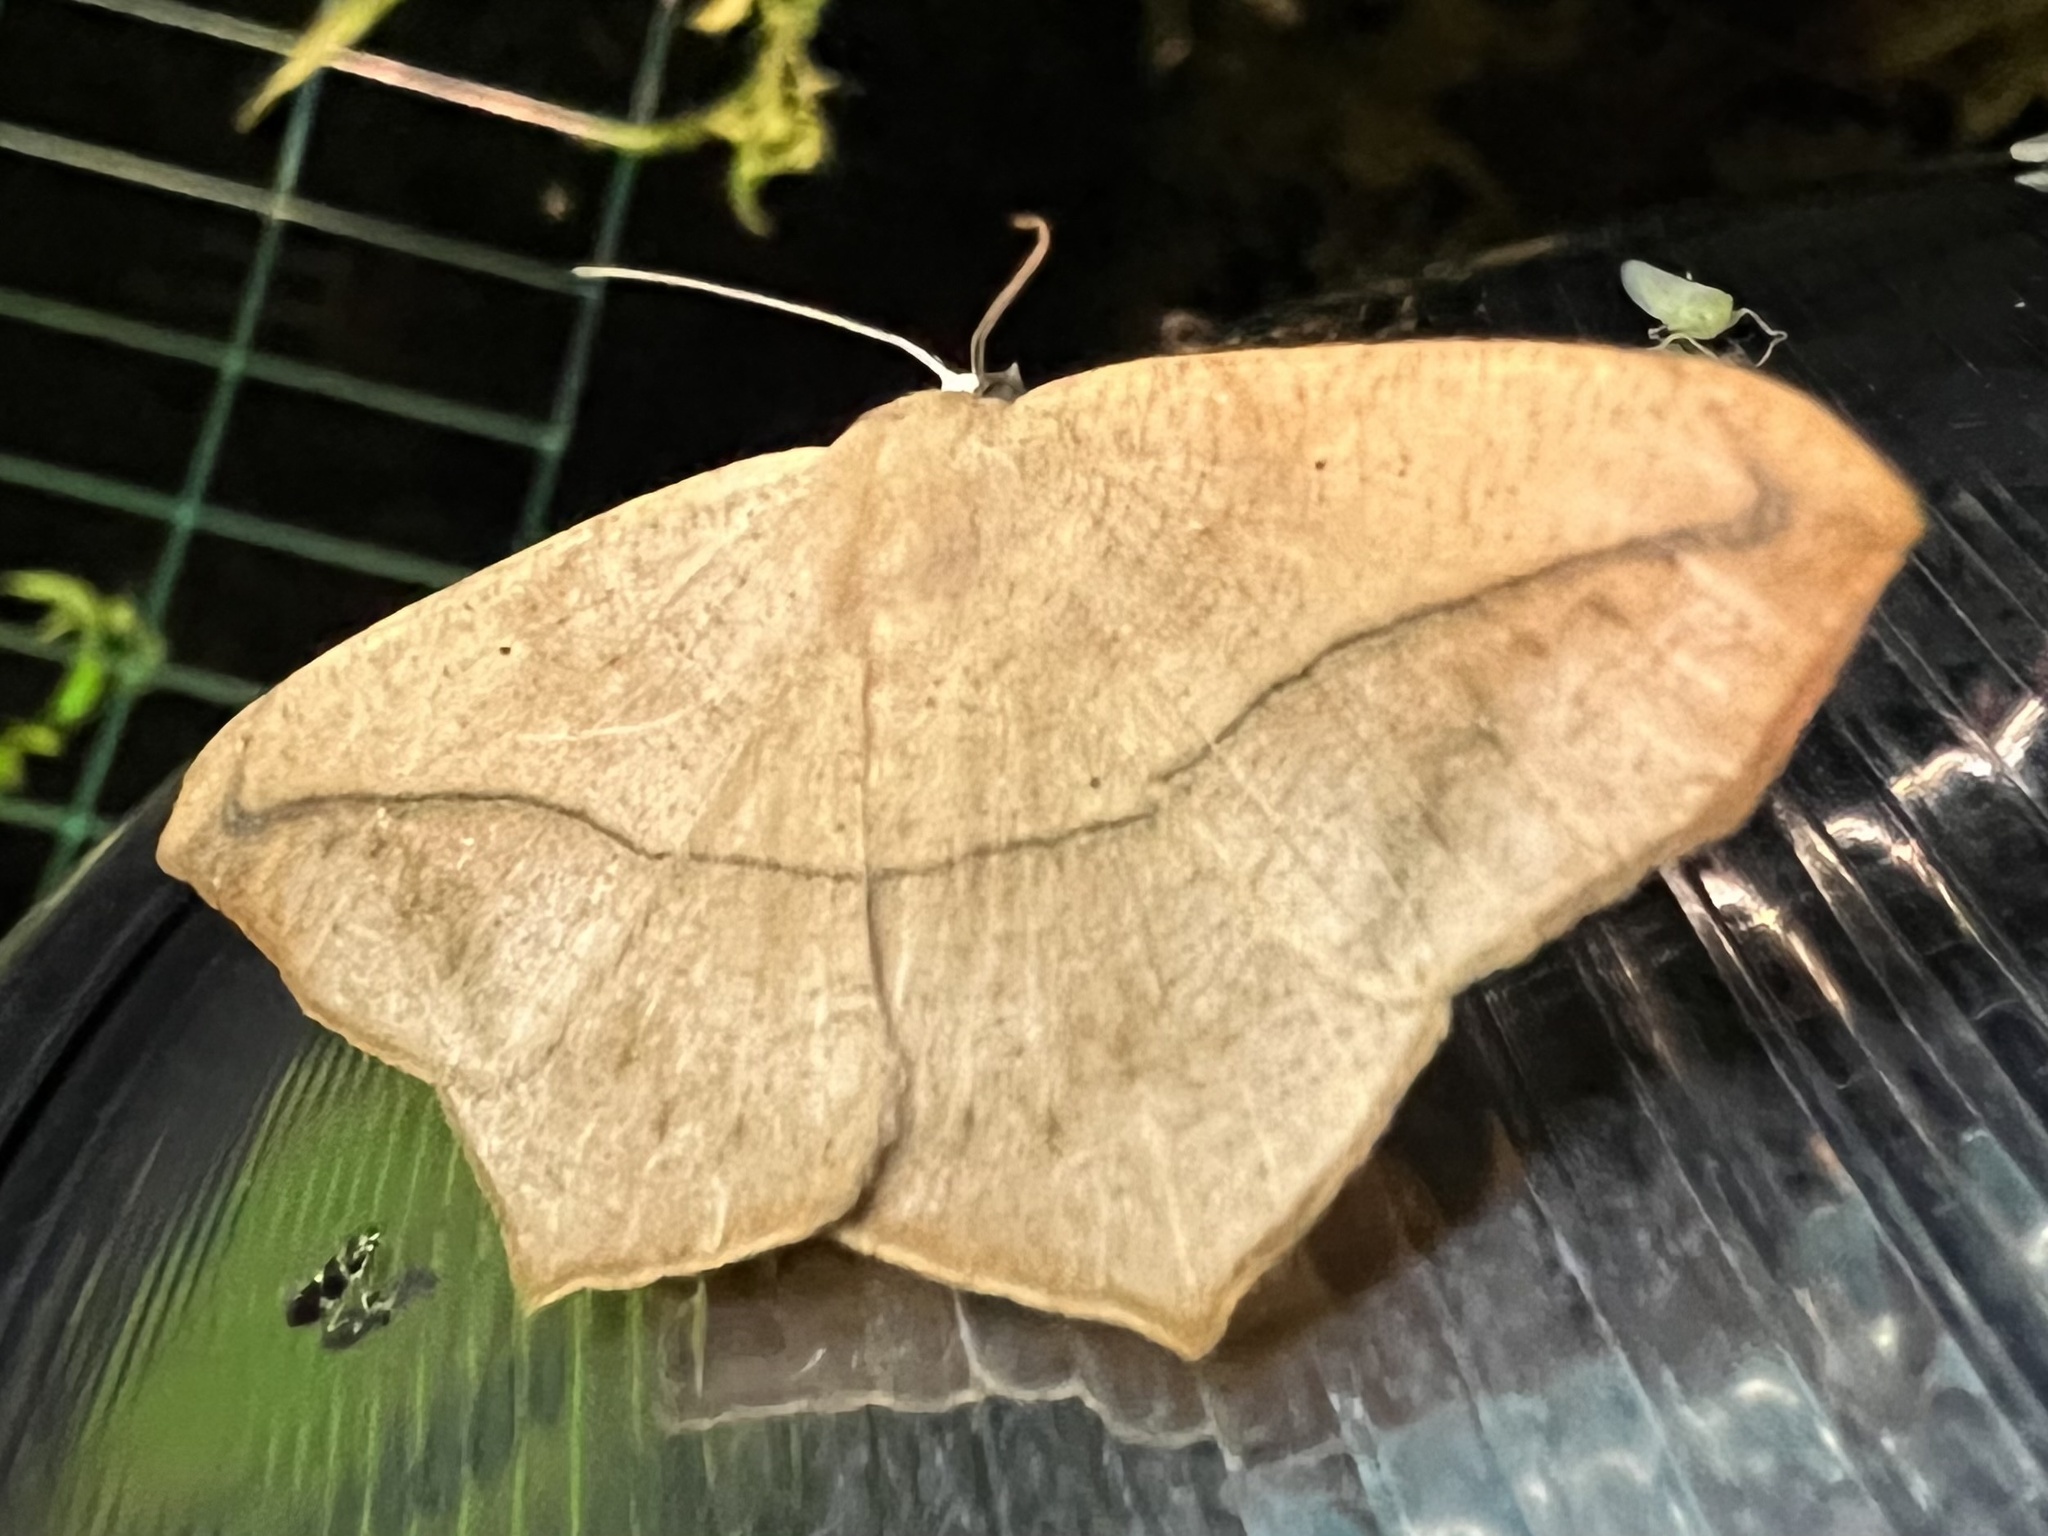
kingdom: Animalia
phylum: Arthropoda
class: Insecta
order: Lepidoptera
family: Geometridae
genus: Prochoerodes
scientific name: Prochoerodes lineola
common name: Large maple spanworm
